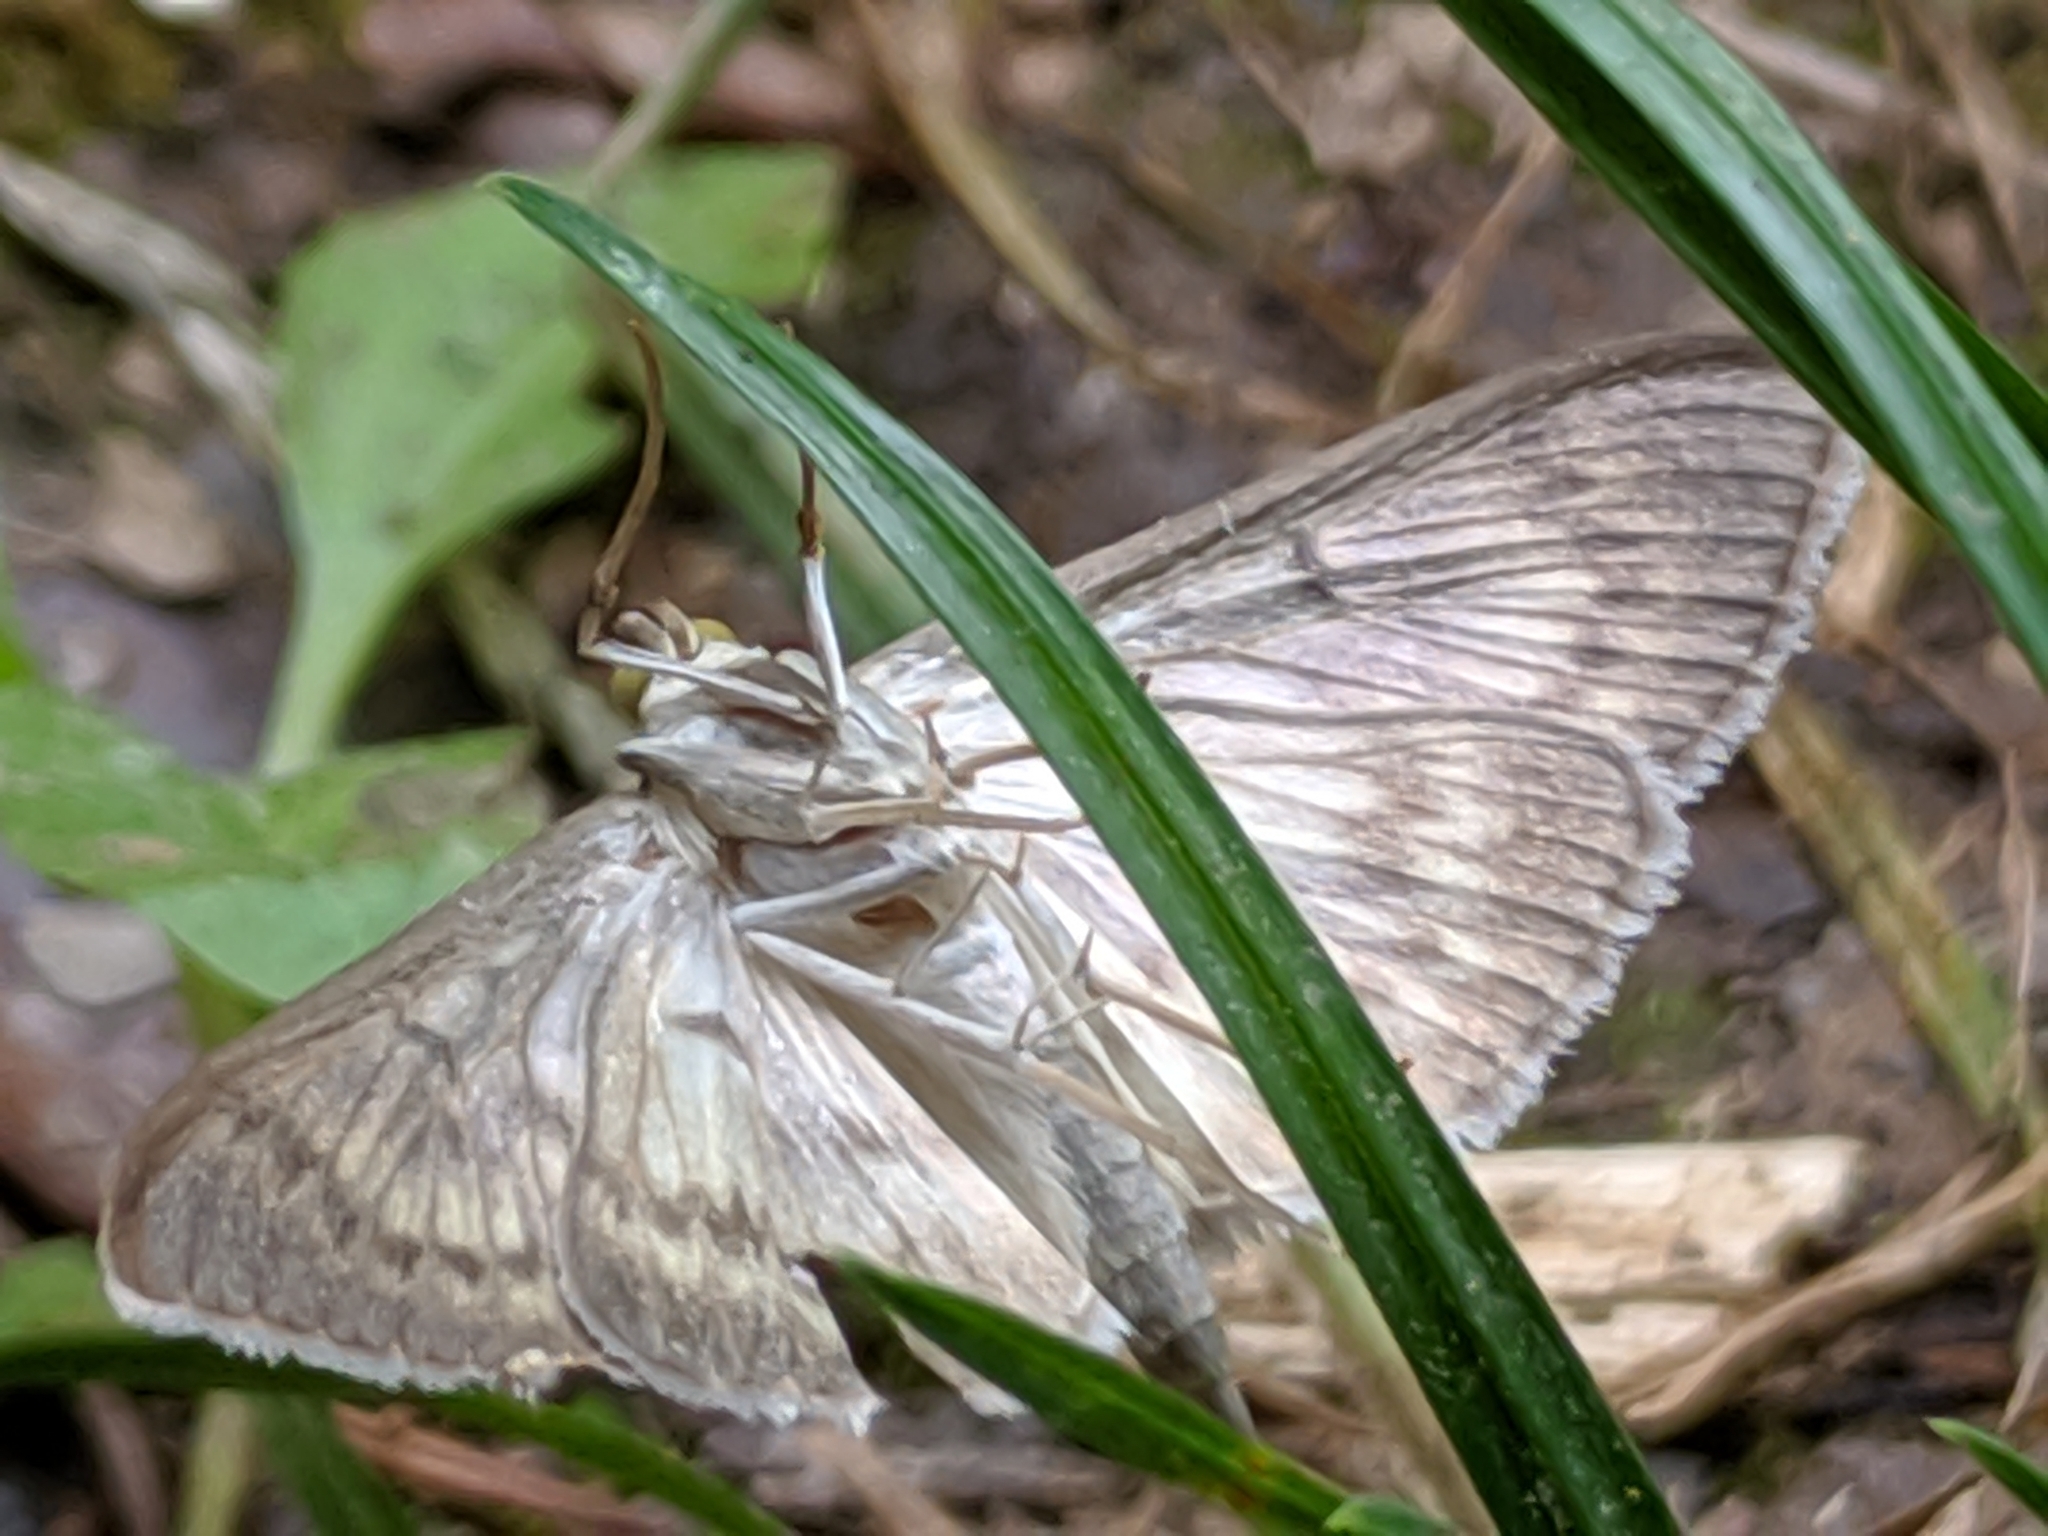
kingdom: Animalia
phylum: Arthropoda
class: Insecta
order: Lepidoptera
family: Crambidae
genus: Patania
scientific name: Patania ruralis
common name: Mother of pearl
